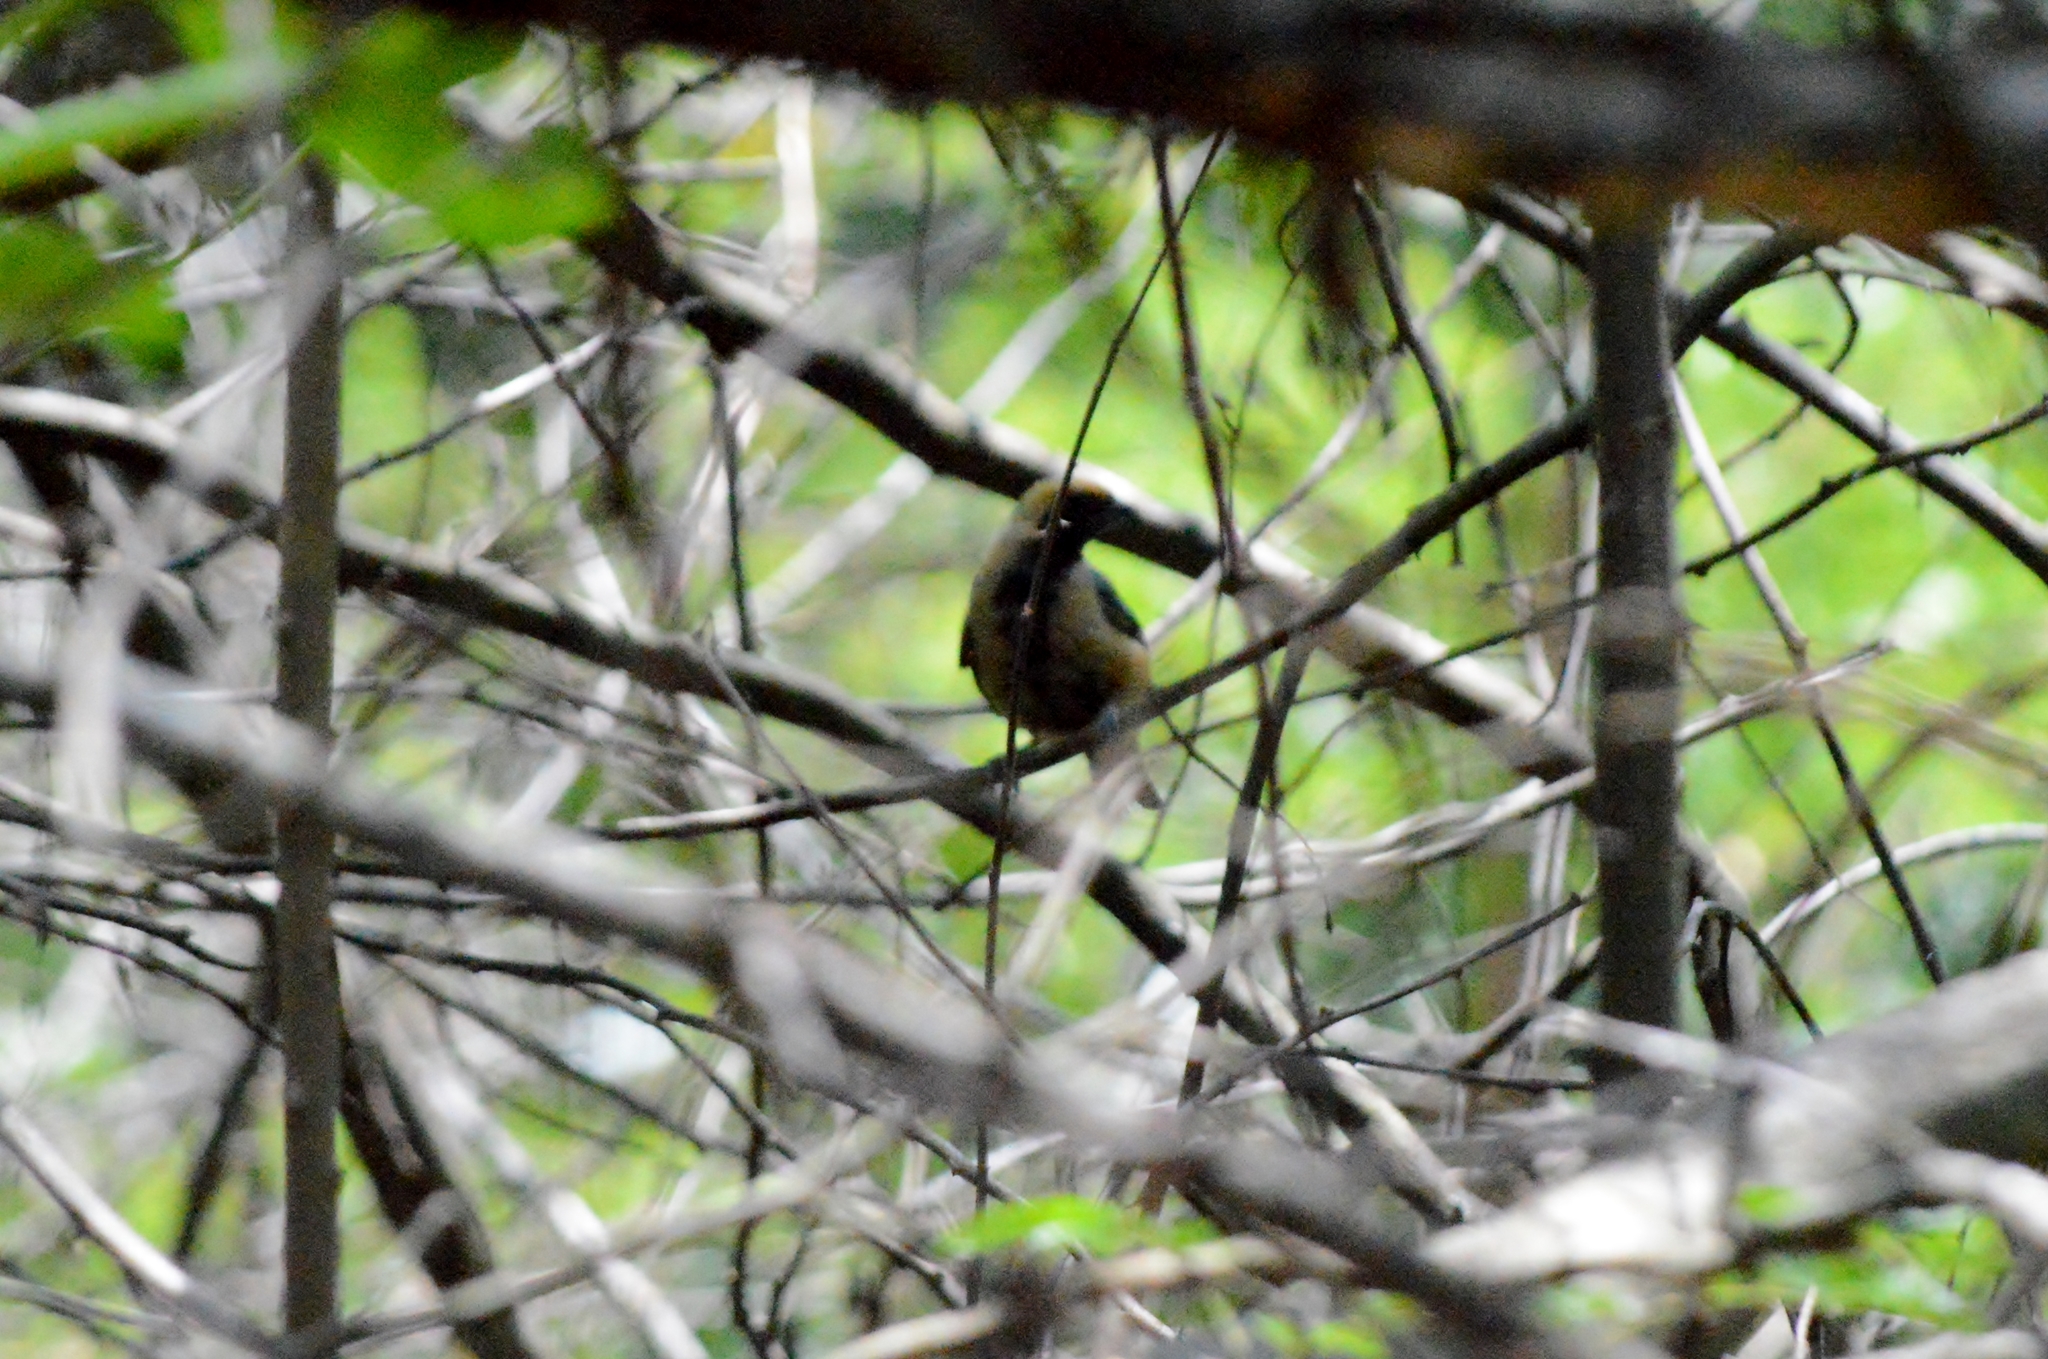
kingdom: Animalia
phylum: Chordata
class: Aves
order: Passeriformes
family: Thraupidae
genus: Stilpnia
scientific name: Stilpnia cayana
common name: Burnished-buff tanager
